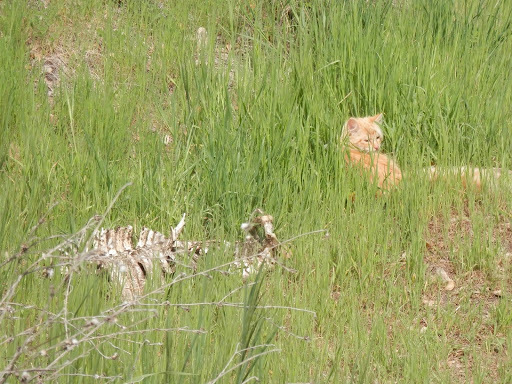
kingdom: Animalia
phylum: Chordata
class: Mammalia
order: Carnivora
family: Felidae
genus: Felis
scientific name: Felis catus
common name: Domestic cat
